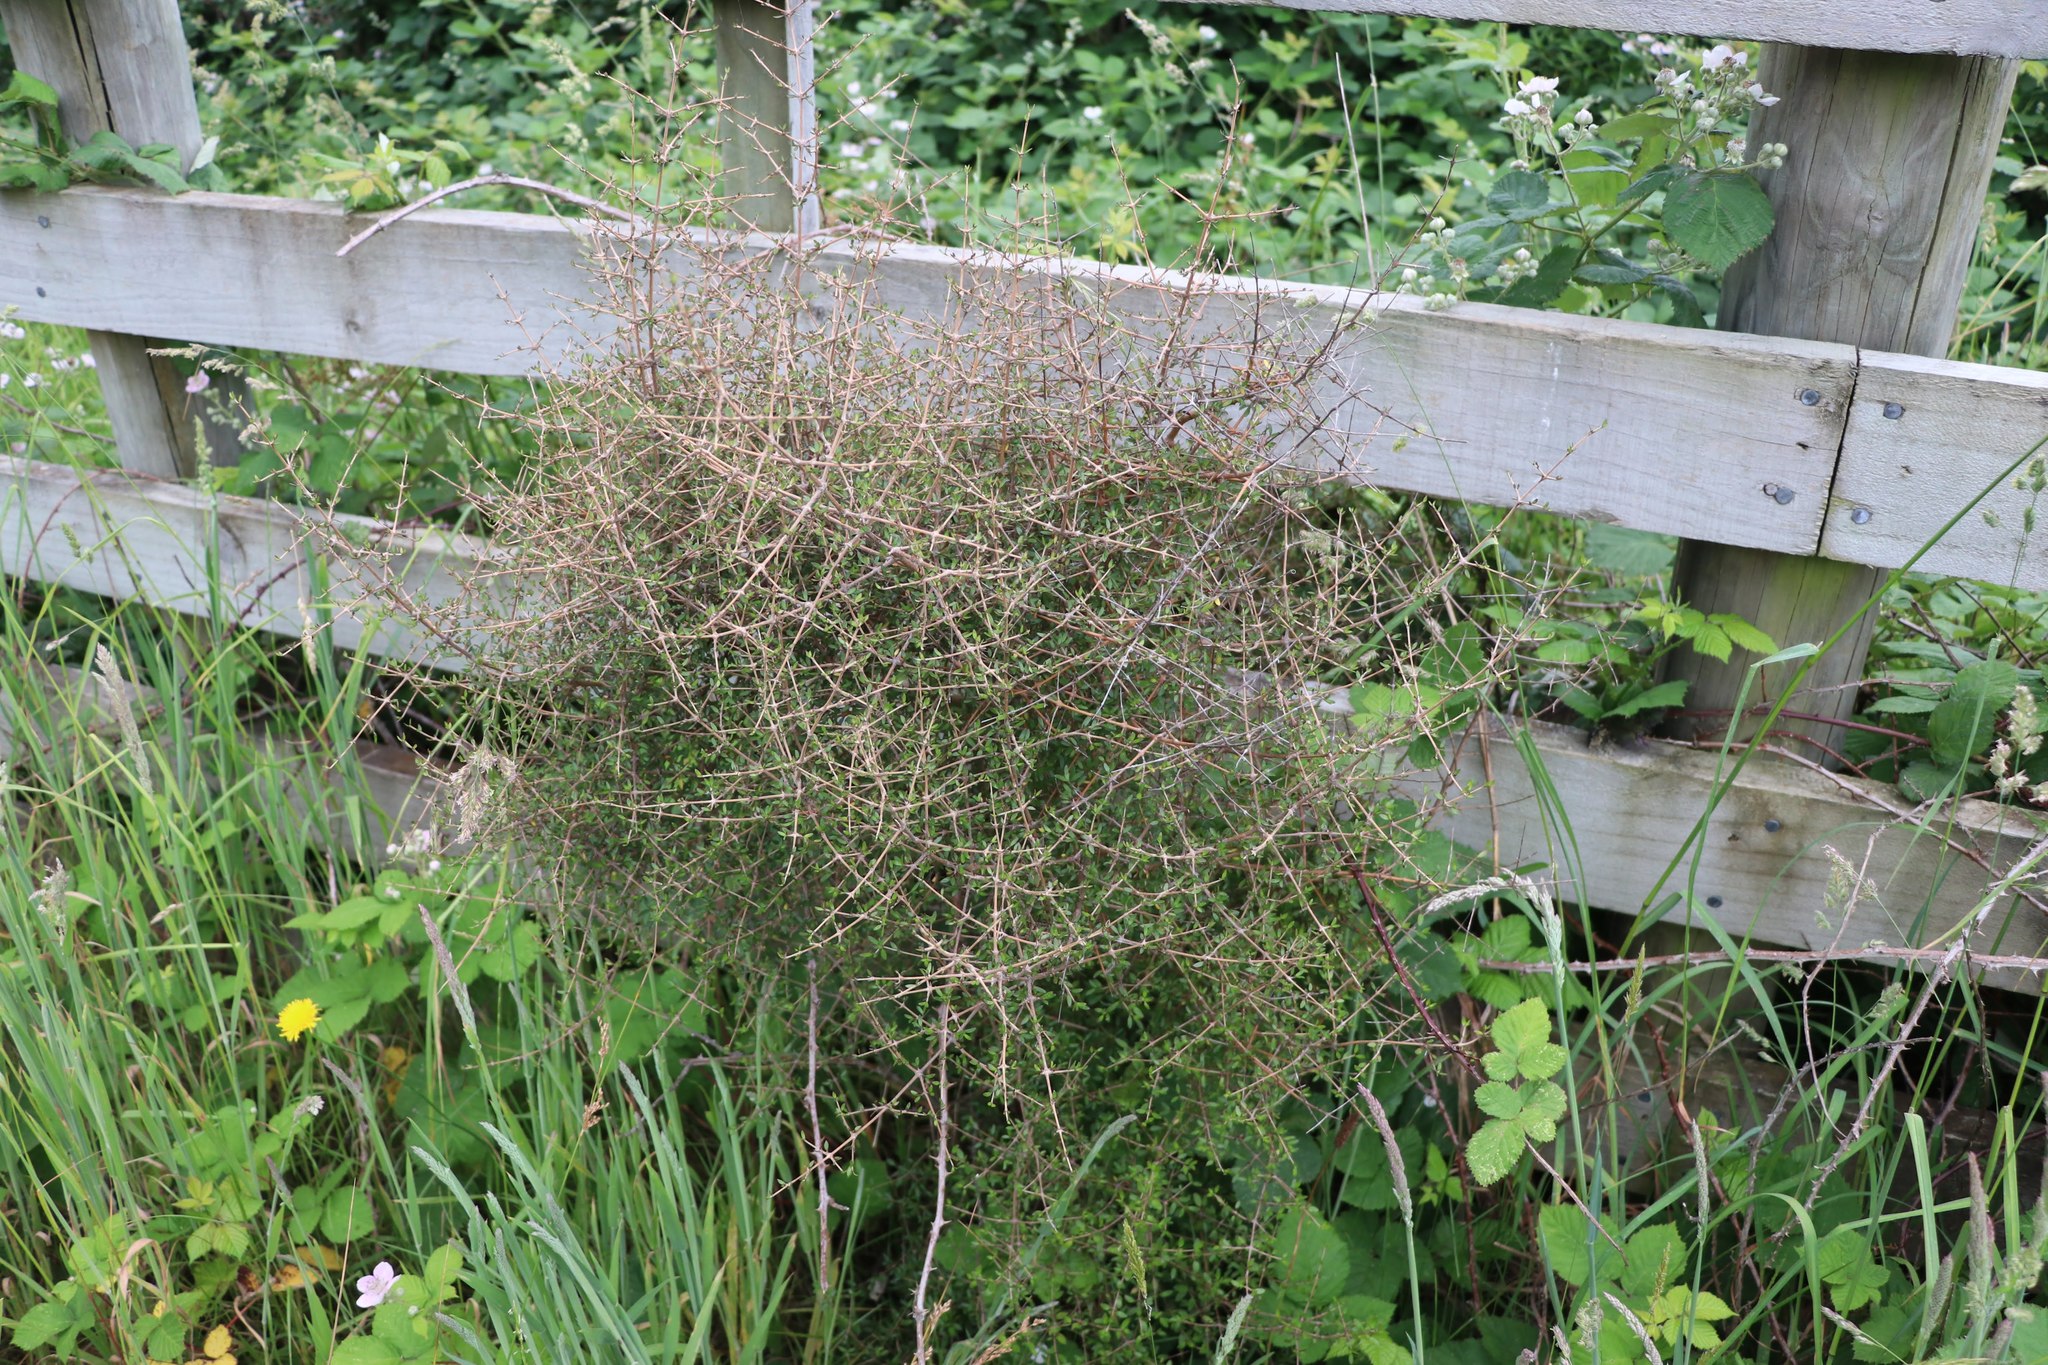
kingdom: Plantae
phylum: Tracheophyta
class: Magnoliopsida
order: Gentianales
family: Rubiaceae
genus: Coprosma
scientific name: Coprosma propinqua
